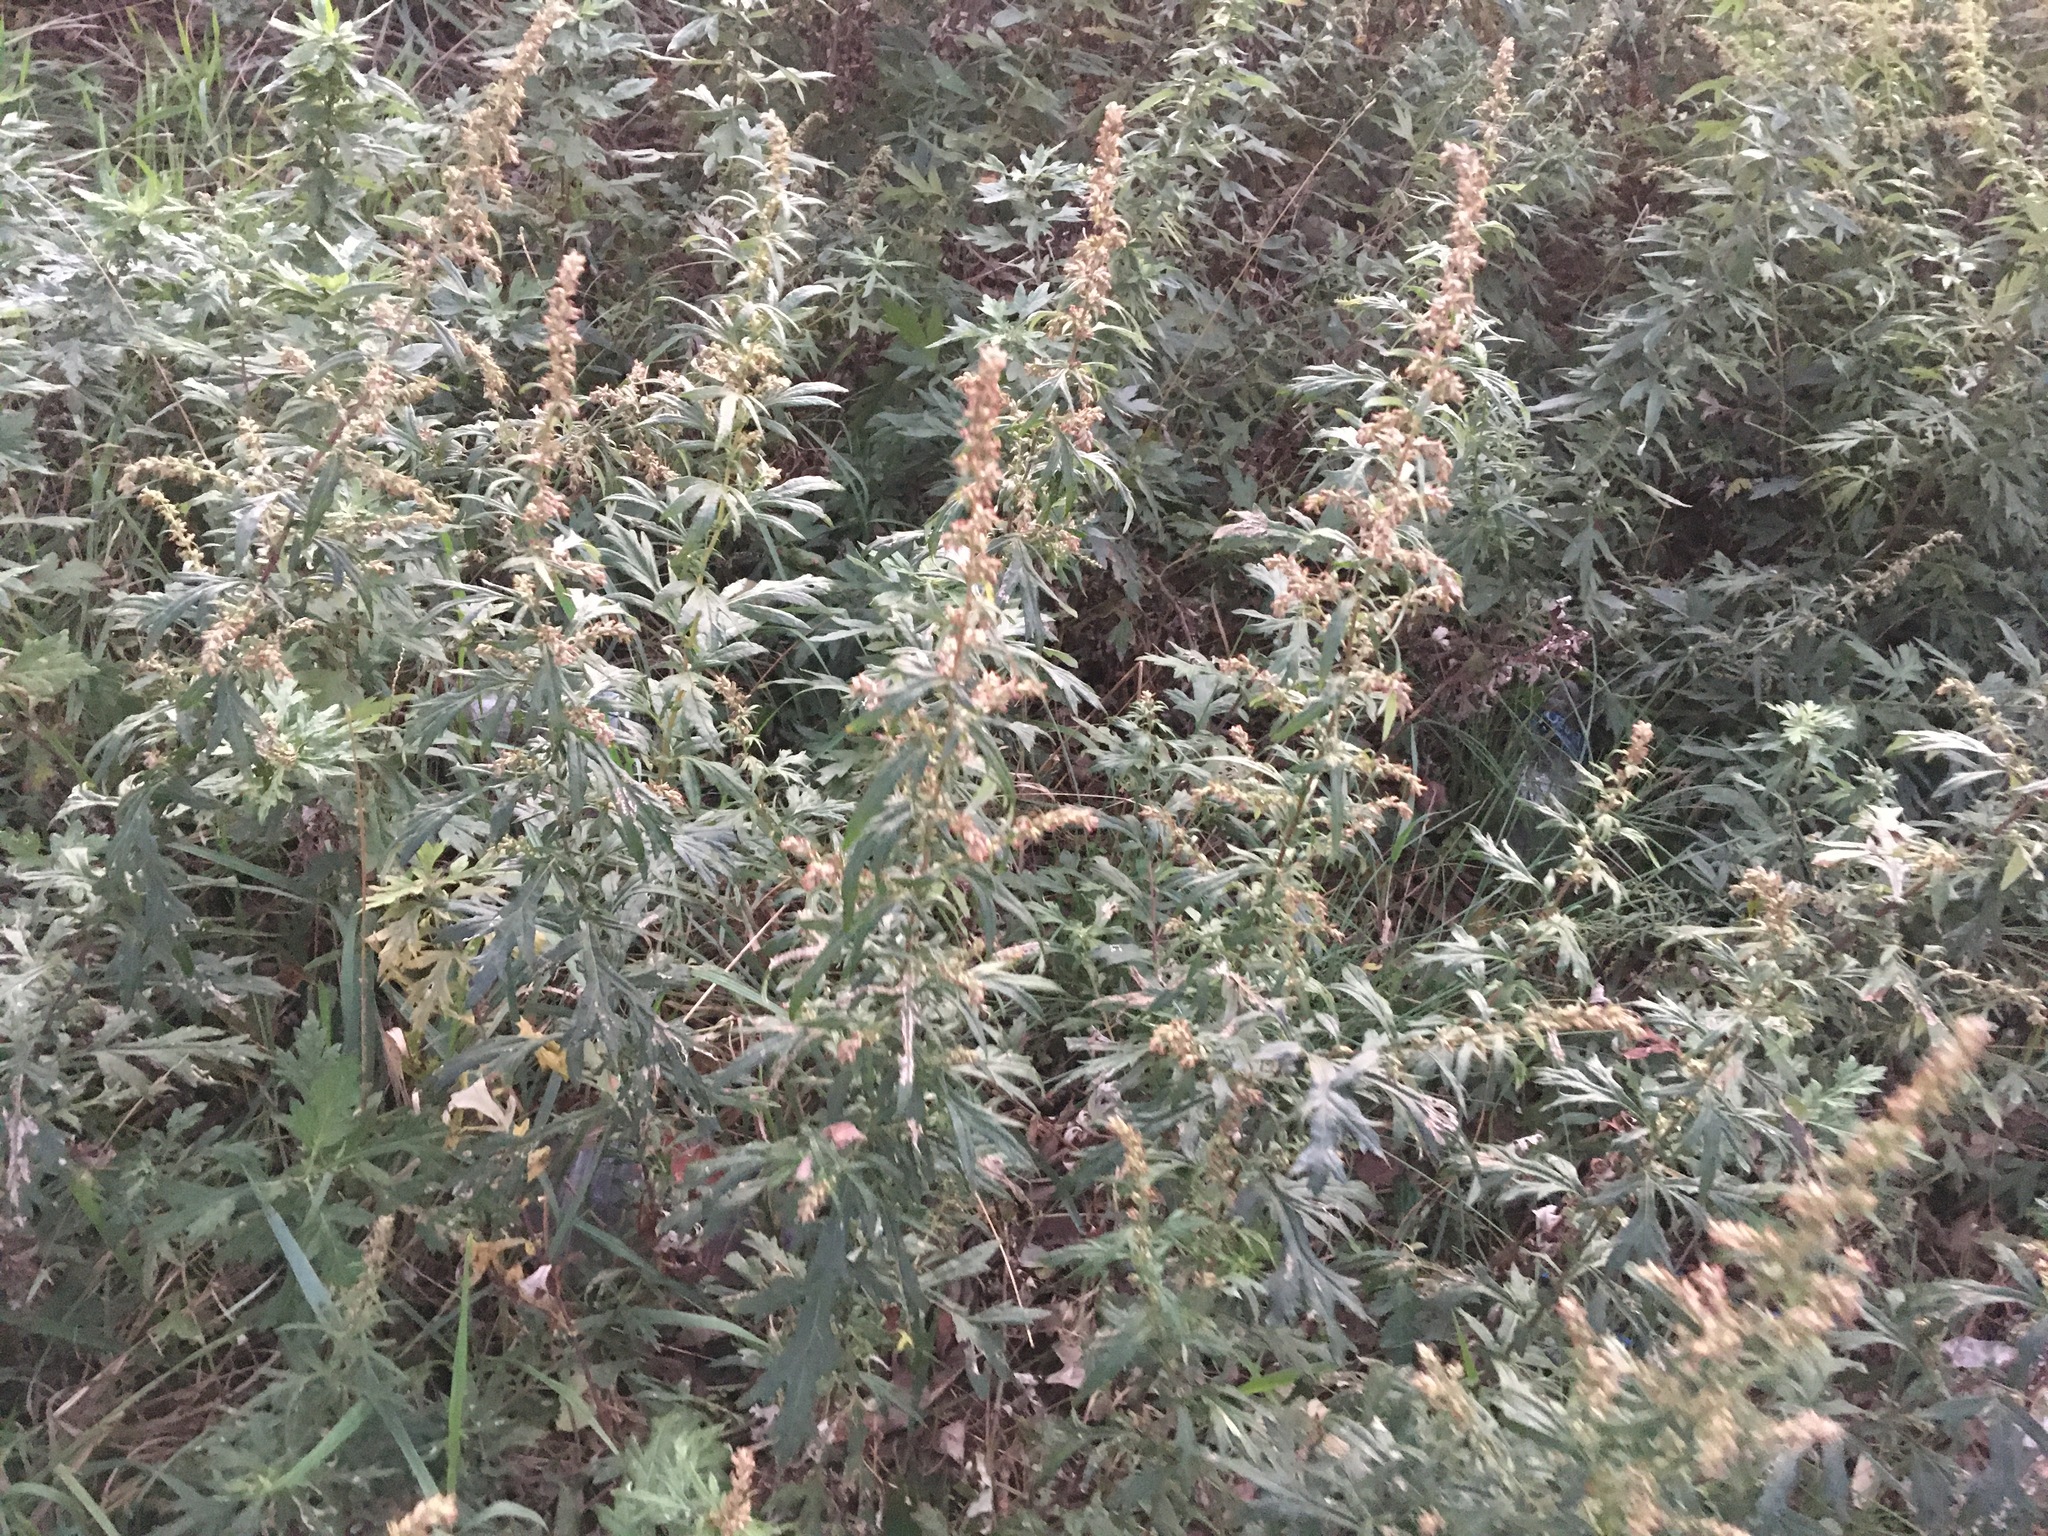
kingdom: Plantae
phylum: Tracheophyta
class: Magnoliopsida
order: Asterales
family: Asteraceae
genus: Artemisia
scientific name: Artemisia vulgaris
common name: Mugwort
